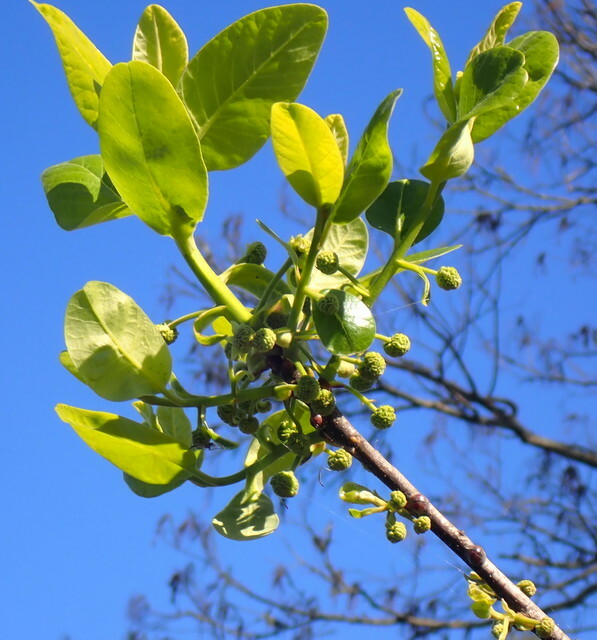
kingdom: Plantae
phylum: Tracheophyta
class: Magnoliopsida
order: Cornales
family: Nyssaceae
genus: Nyssa
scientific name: Nyssa ogeche
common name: Ogeechee tupelo
